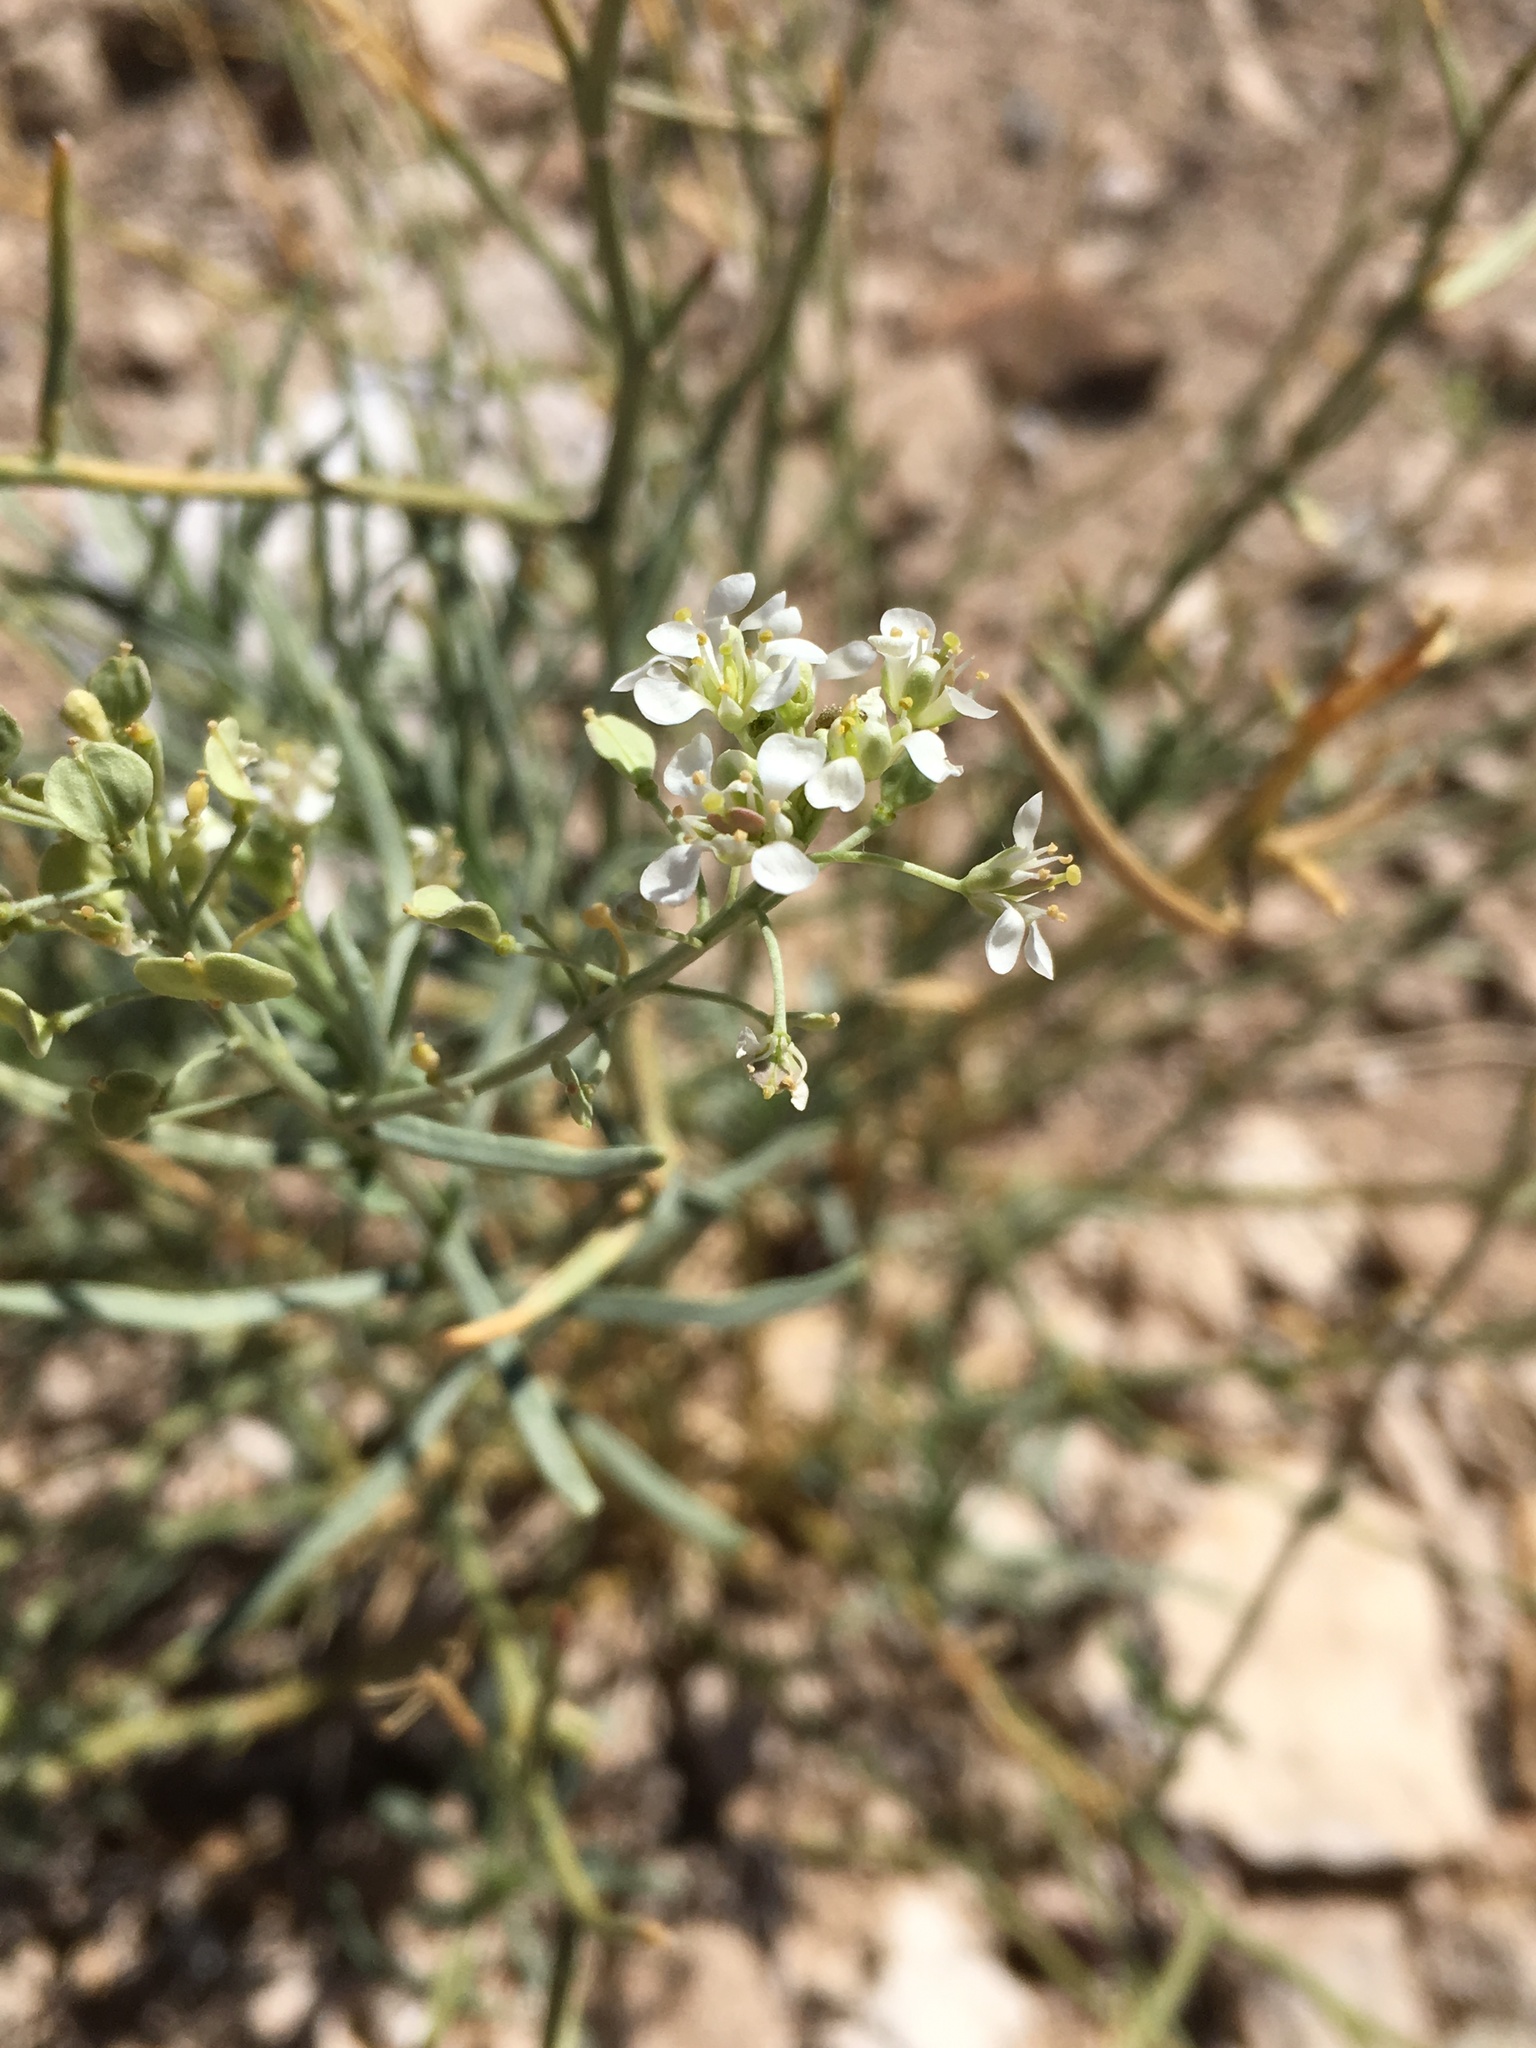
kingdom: Plantae
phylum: Tracheophyta
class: Magnoliopsida
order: Brassicales
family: Brassicaceae
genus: Lepidium
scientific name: Lepidium fremontii
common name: Fremont's pepperwort
